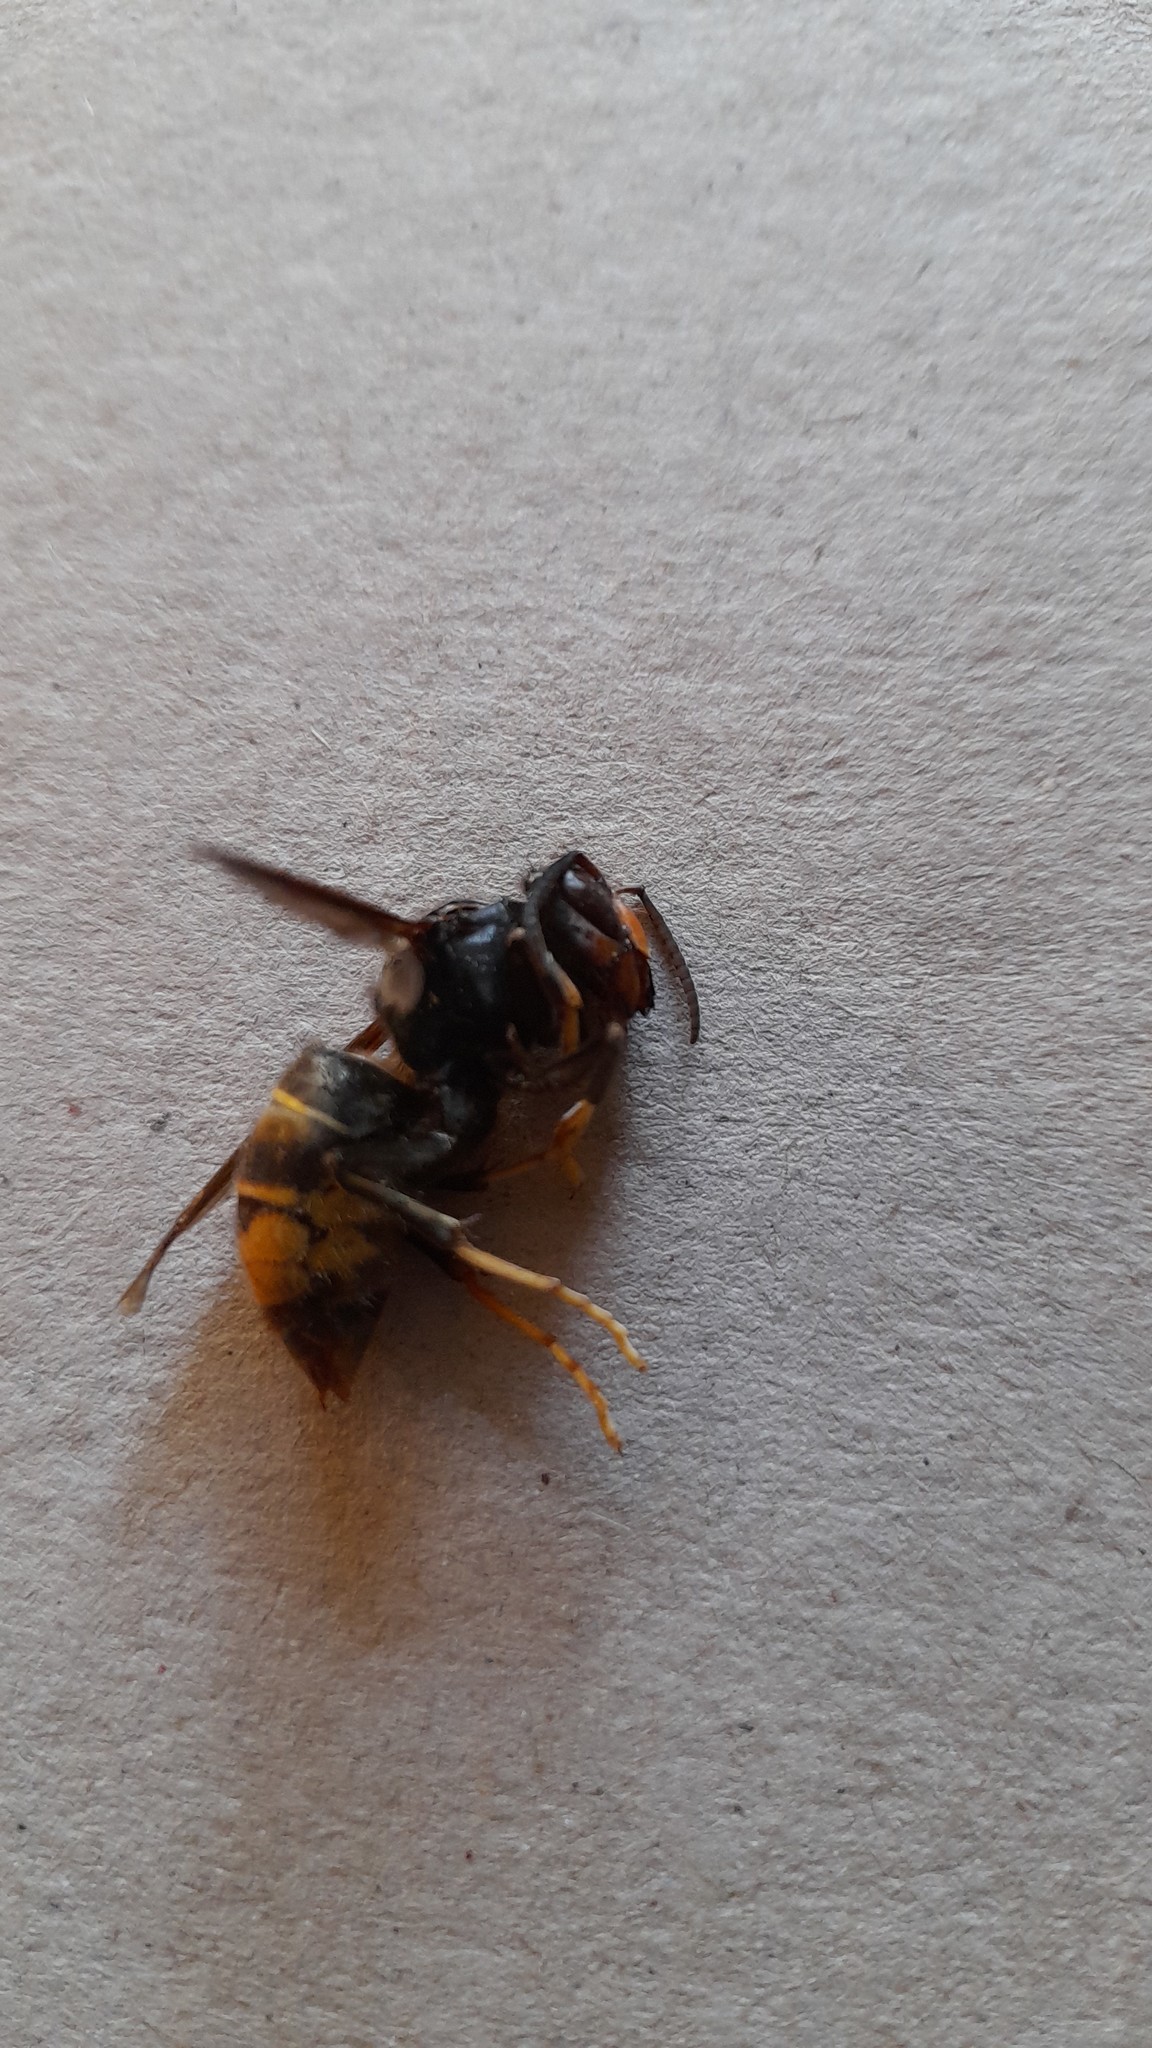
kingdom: Animalia
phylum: Arthropoda
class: Insecta
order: Hymenoptera
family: Vespidae
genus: Vespa
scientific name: Vespa velutina
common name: Asian hornet
